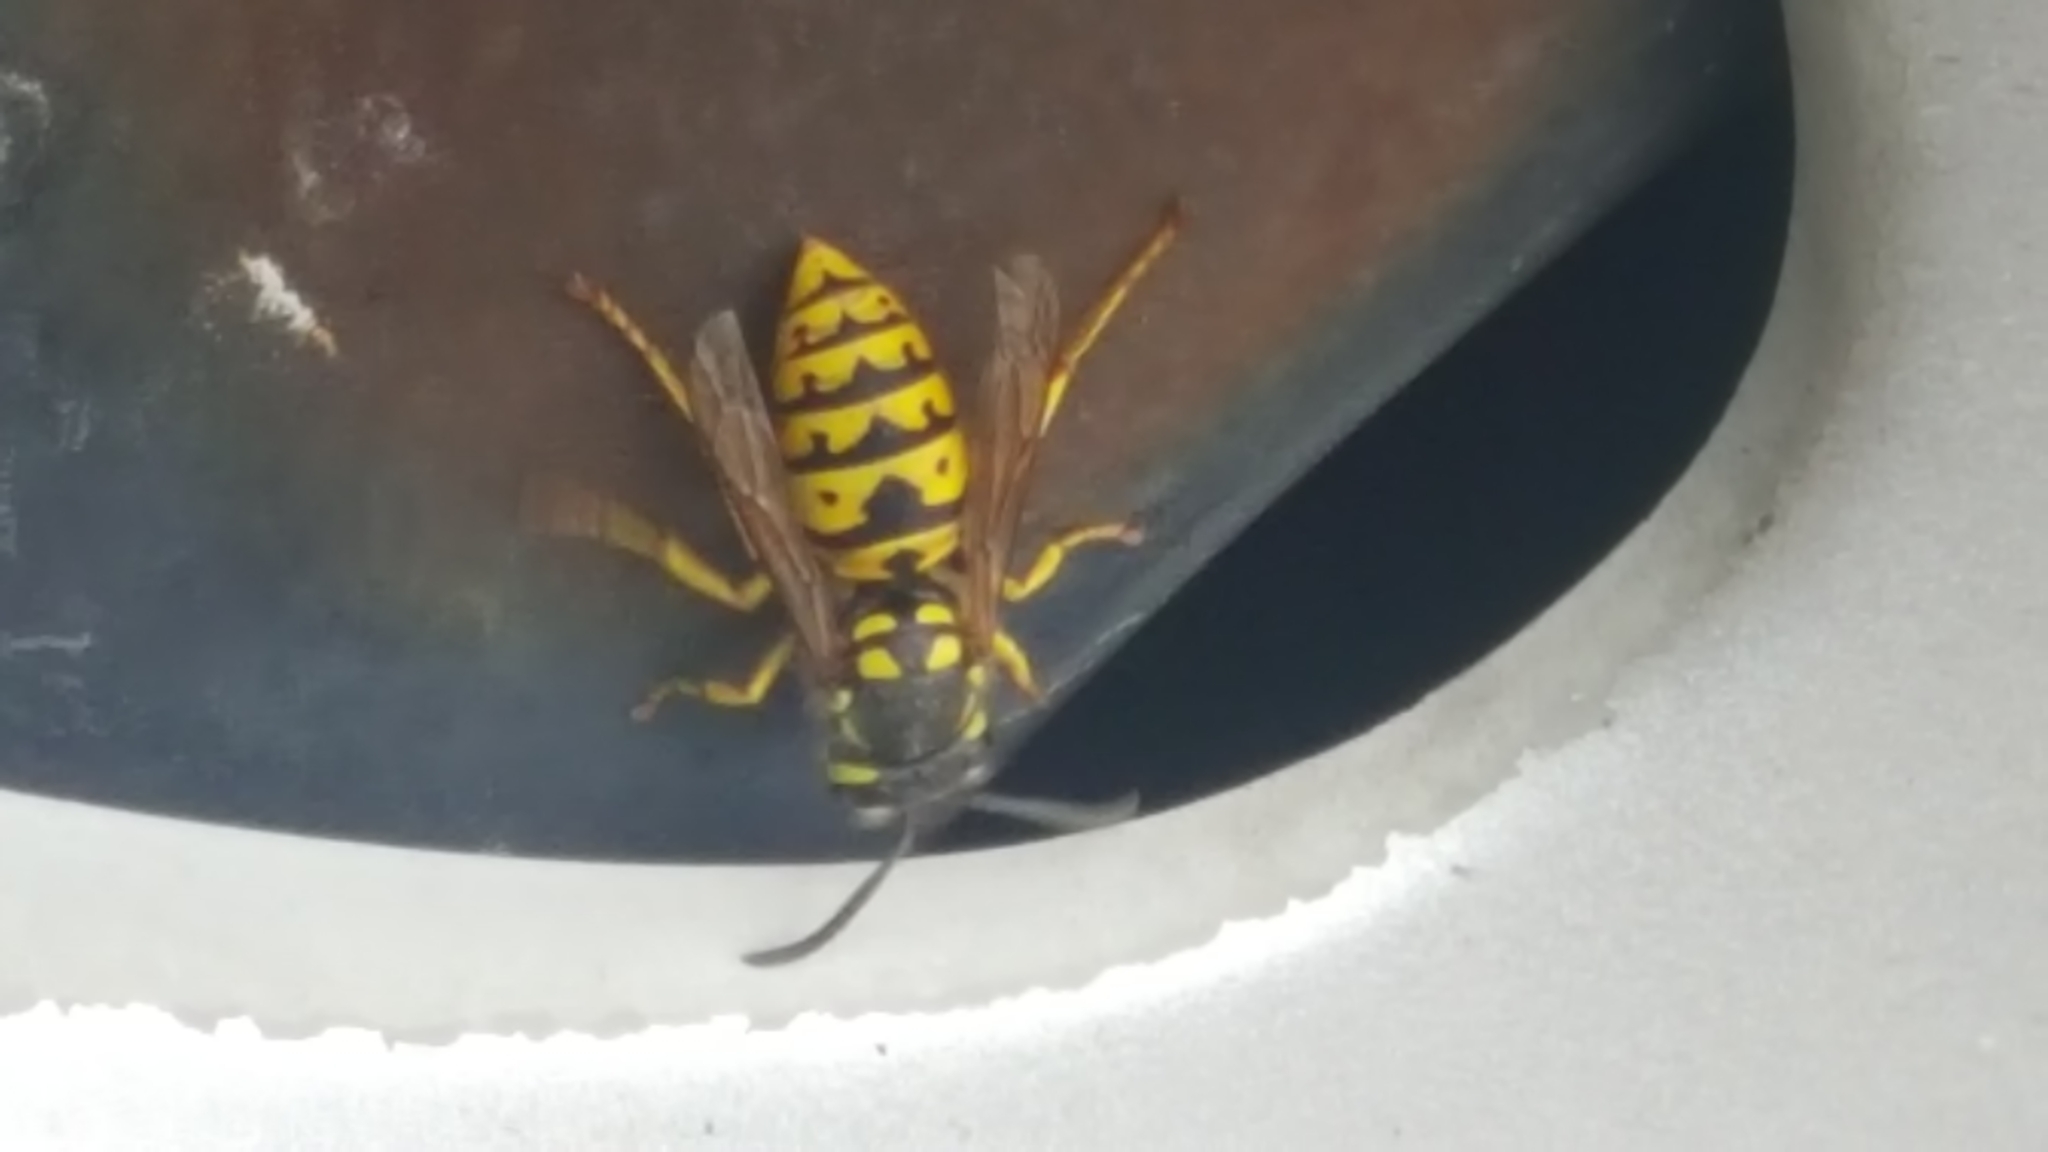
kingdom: Animalia
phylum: Arthropoda
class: Insecta
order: Hymenoptera
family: Vespidae
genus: Vespula
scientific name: Vespula germanica
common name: German wasp
